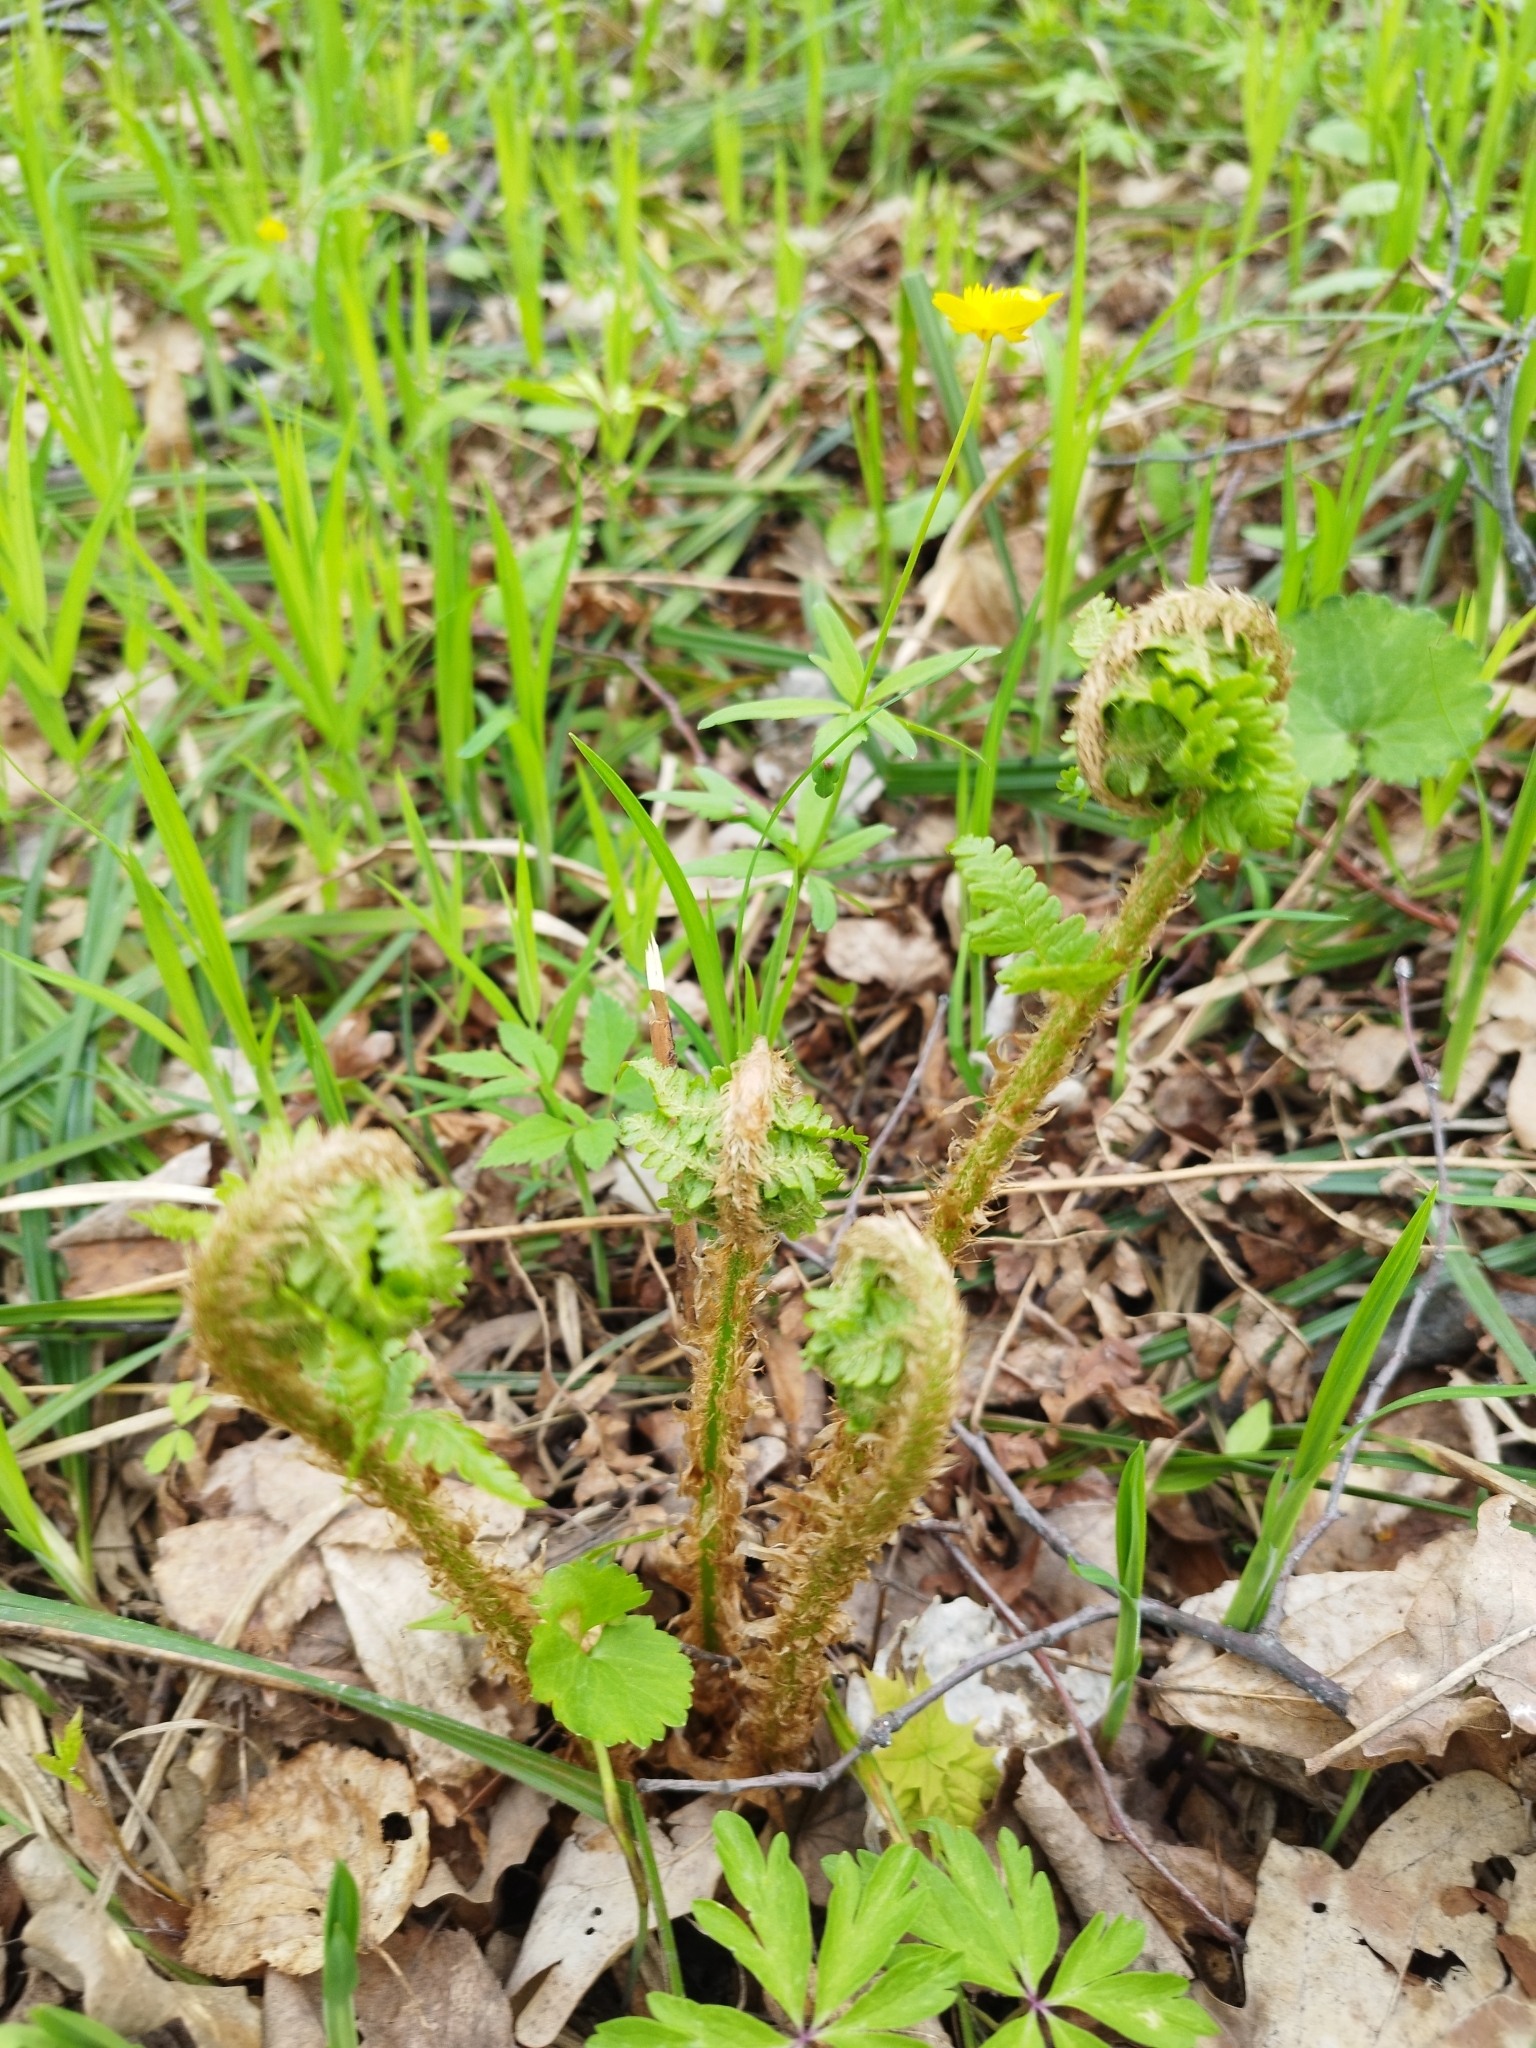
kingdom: Plantae
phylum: Tracheophyta
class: Polypodiopsida
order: Polypodiales
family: Dryopteridaceae
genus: Dryopteris
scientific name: Dryopteris filix-mas
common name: Male fern
